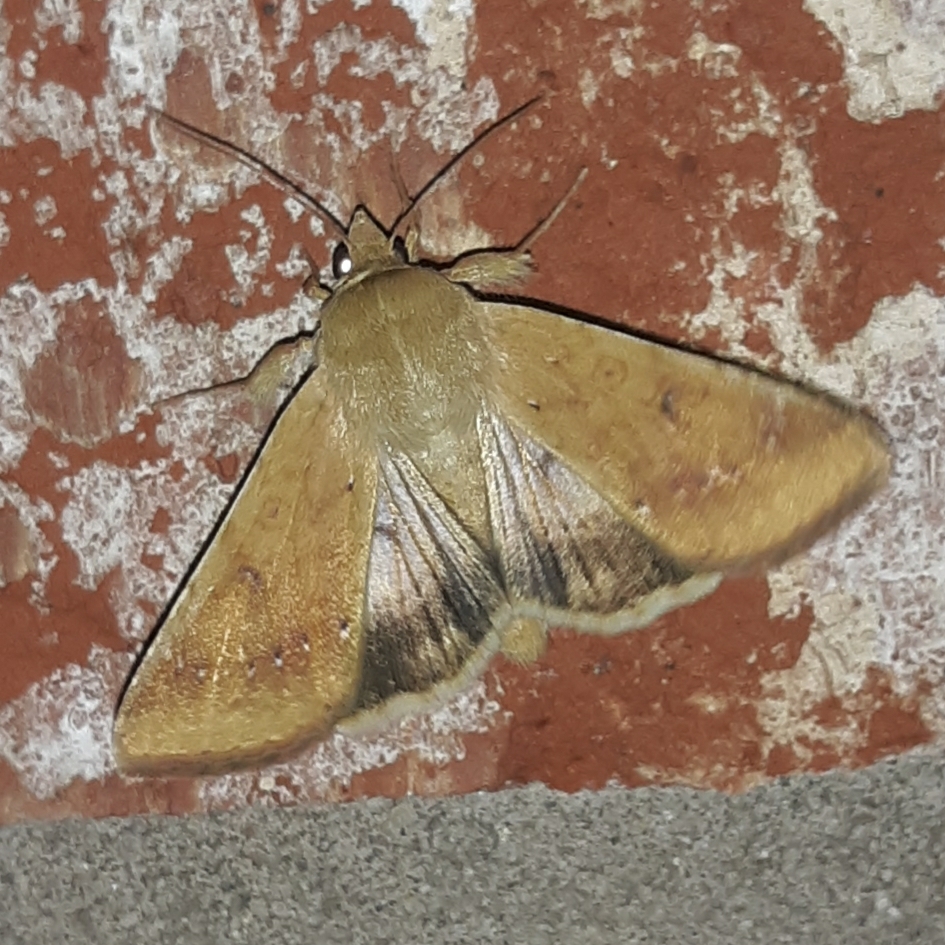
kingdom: Animalia
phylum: Arthropoda
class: Insecta
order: Lepidoptera
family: Noctuidae
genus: Helicoverpa
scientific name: Helicoverpa zea
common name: Bollworm
